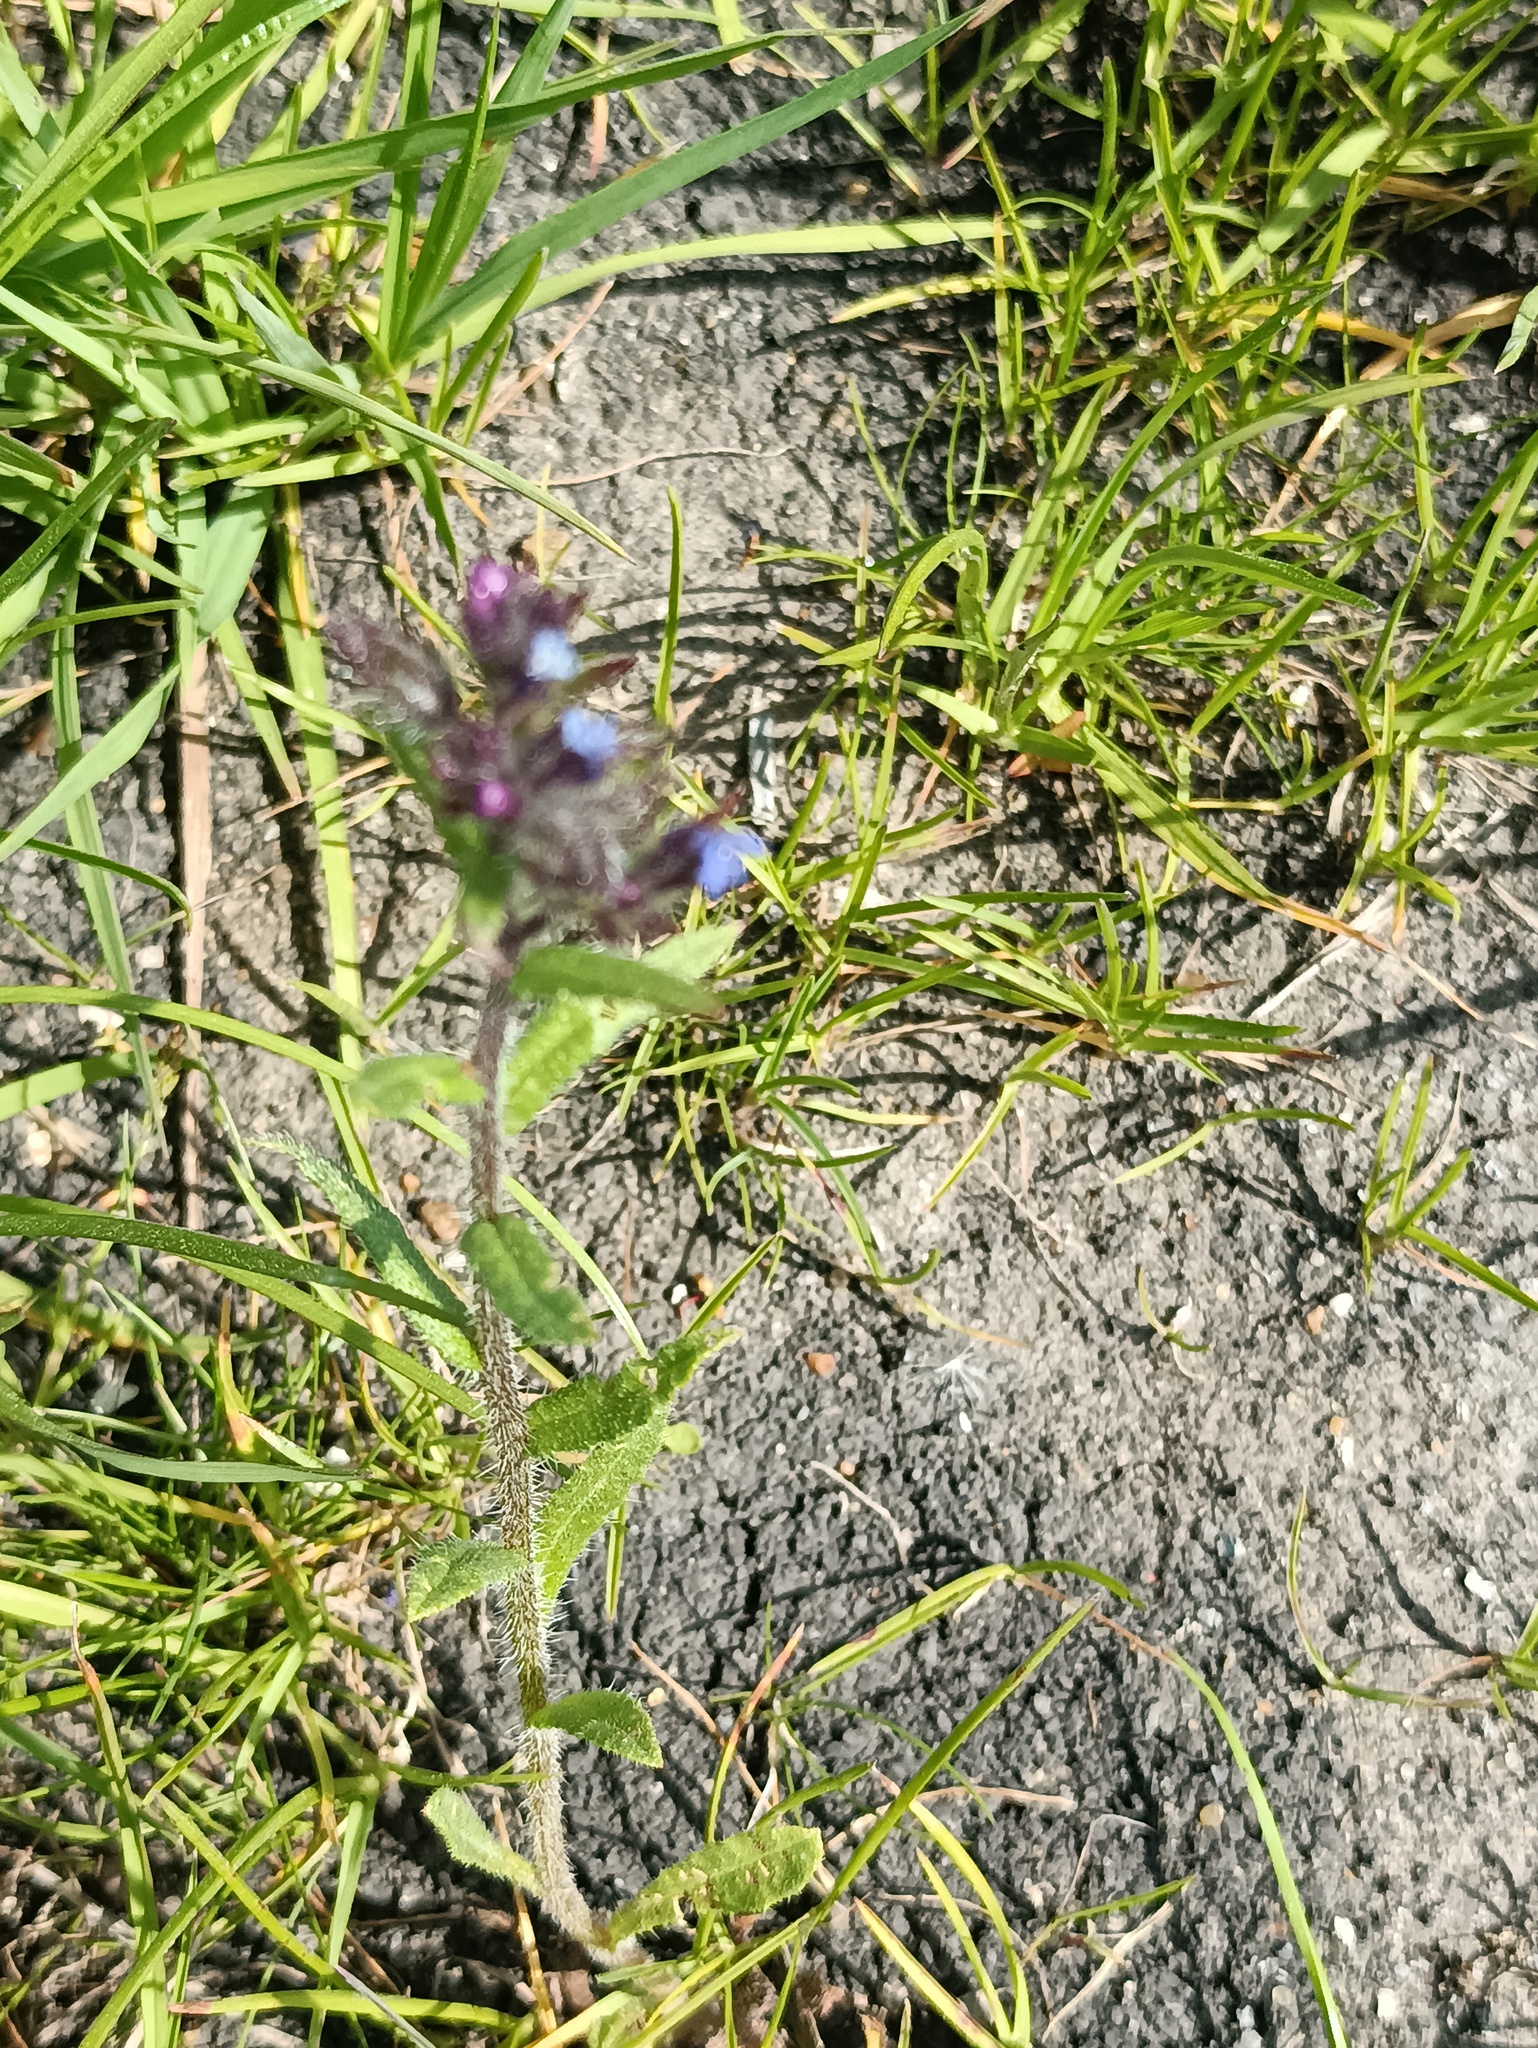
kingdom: Plantae
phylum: Tracheophyta
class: Magnoliopsida
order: Boraginales
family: Boraginaceae
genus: Lycopsis
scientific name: Lycopsis arvensis
